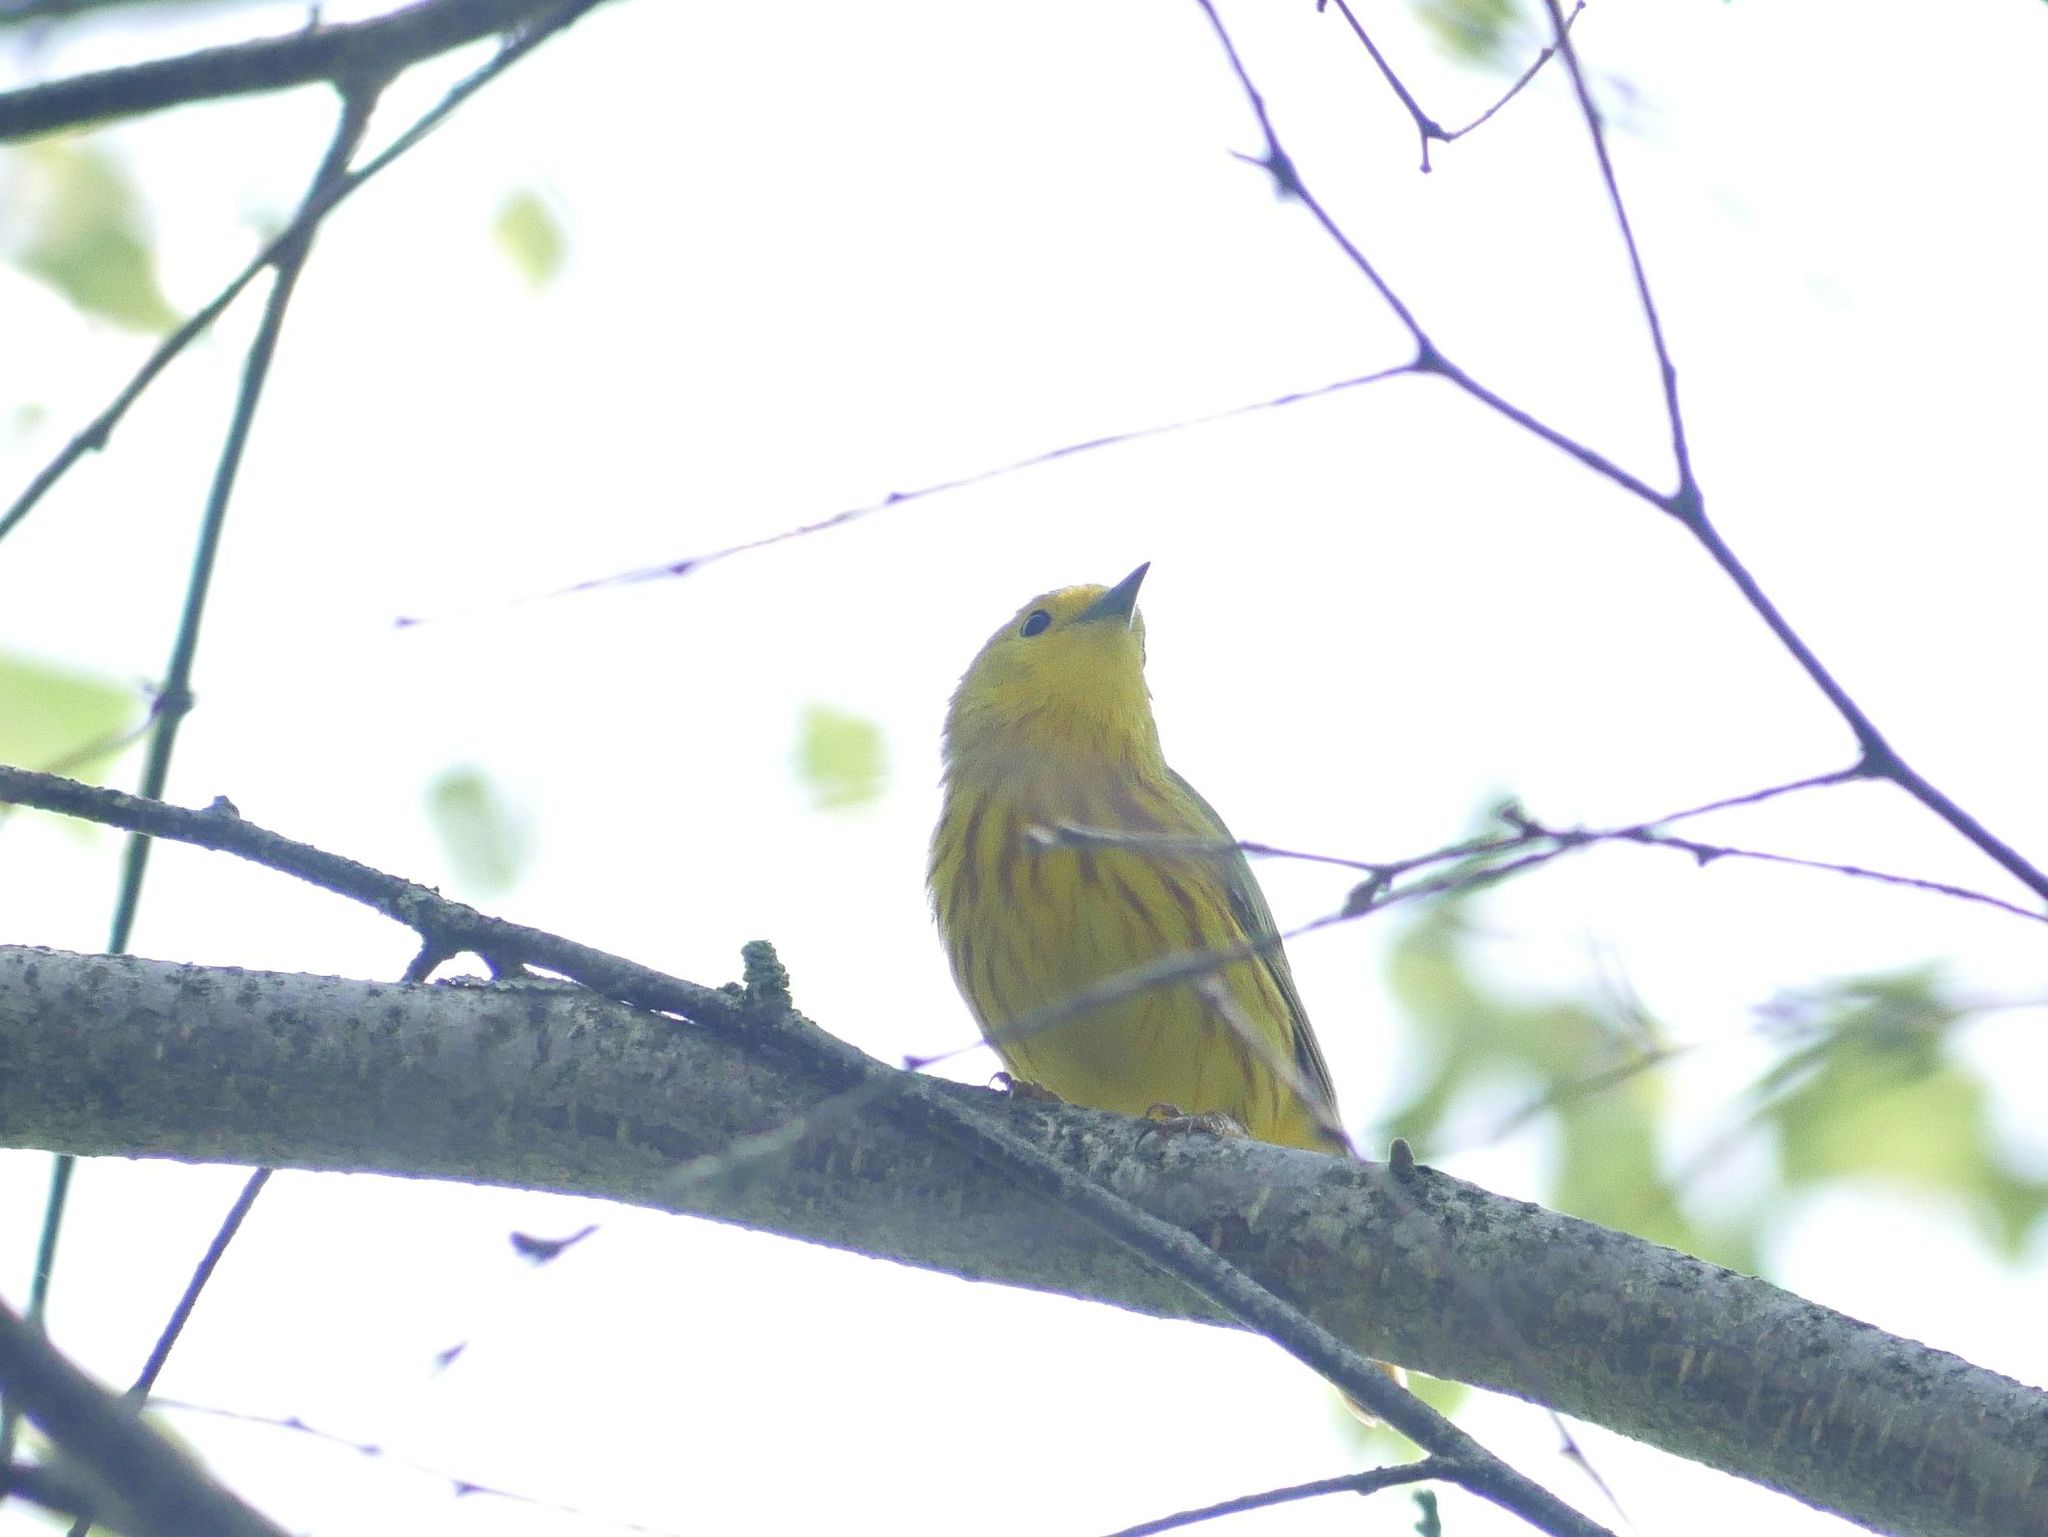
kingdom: Animalia
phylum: Chordata
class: Aves
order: Passeriformes
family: Parulidae
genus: Setophaga
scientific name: Setophaga petechia
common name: Yellow warbler
